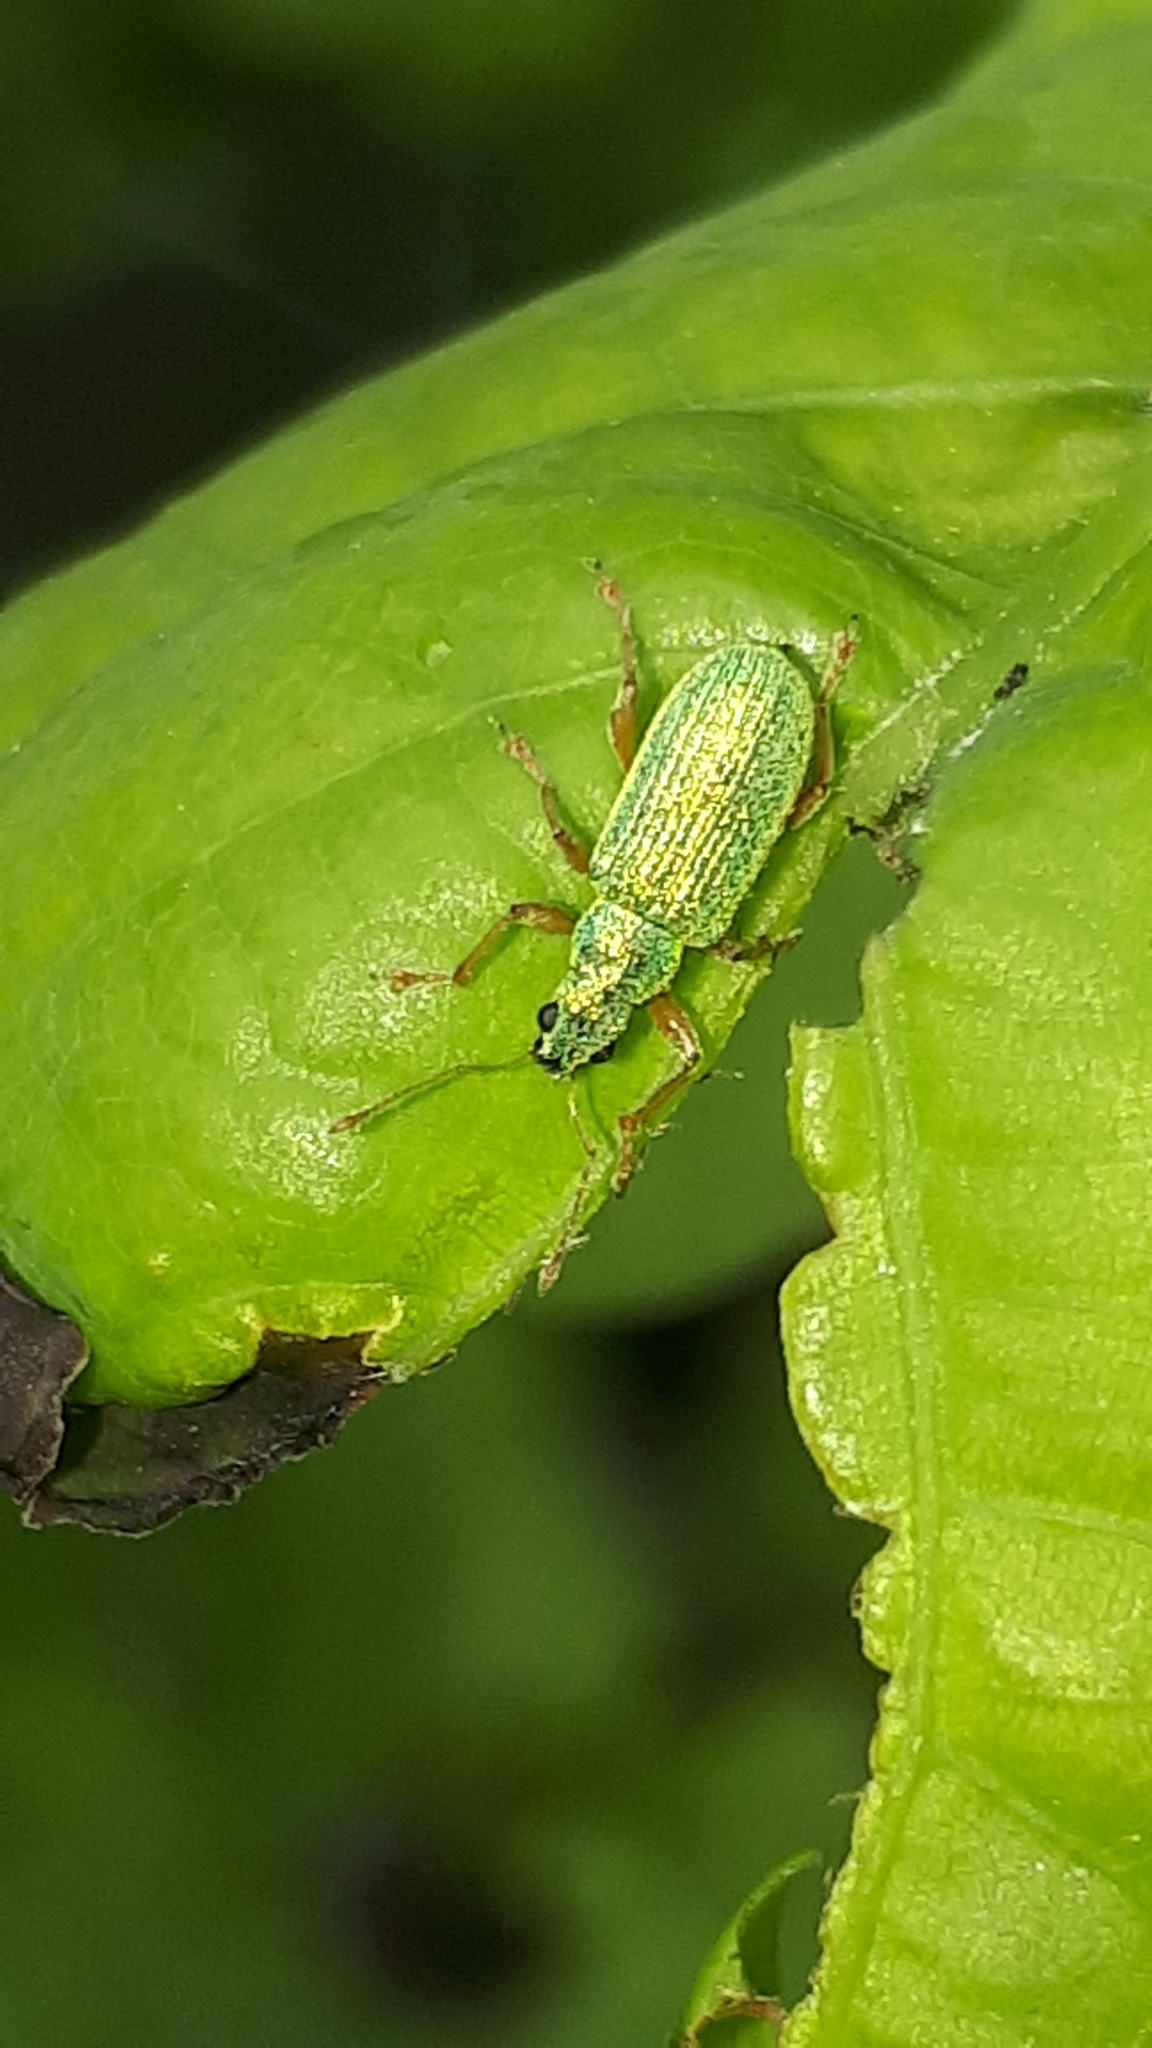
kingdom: Animalia
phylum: Arthropoda
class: Insecta
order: Coleoptera
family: Curculionidae
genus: Polydrusus
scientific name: Polydrusus pterygomalis
